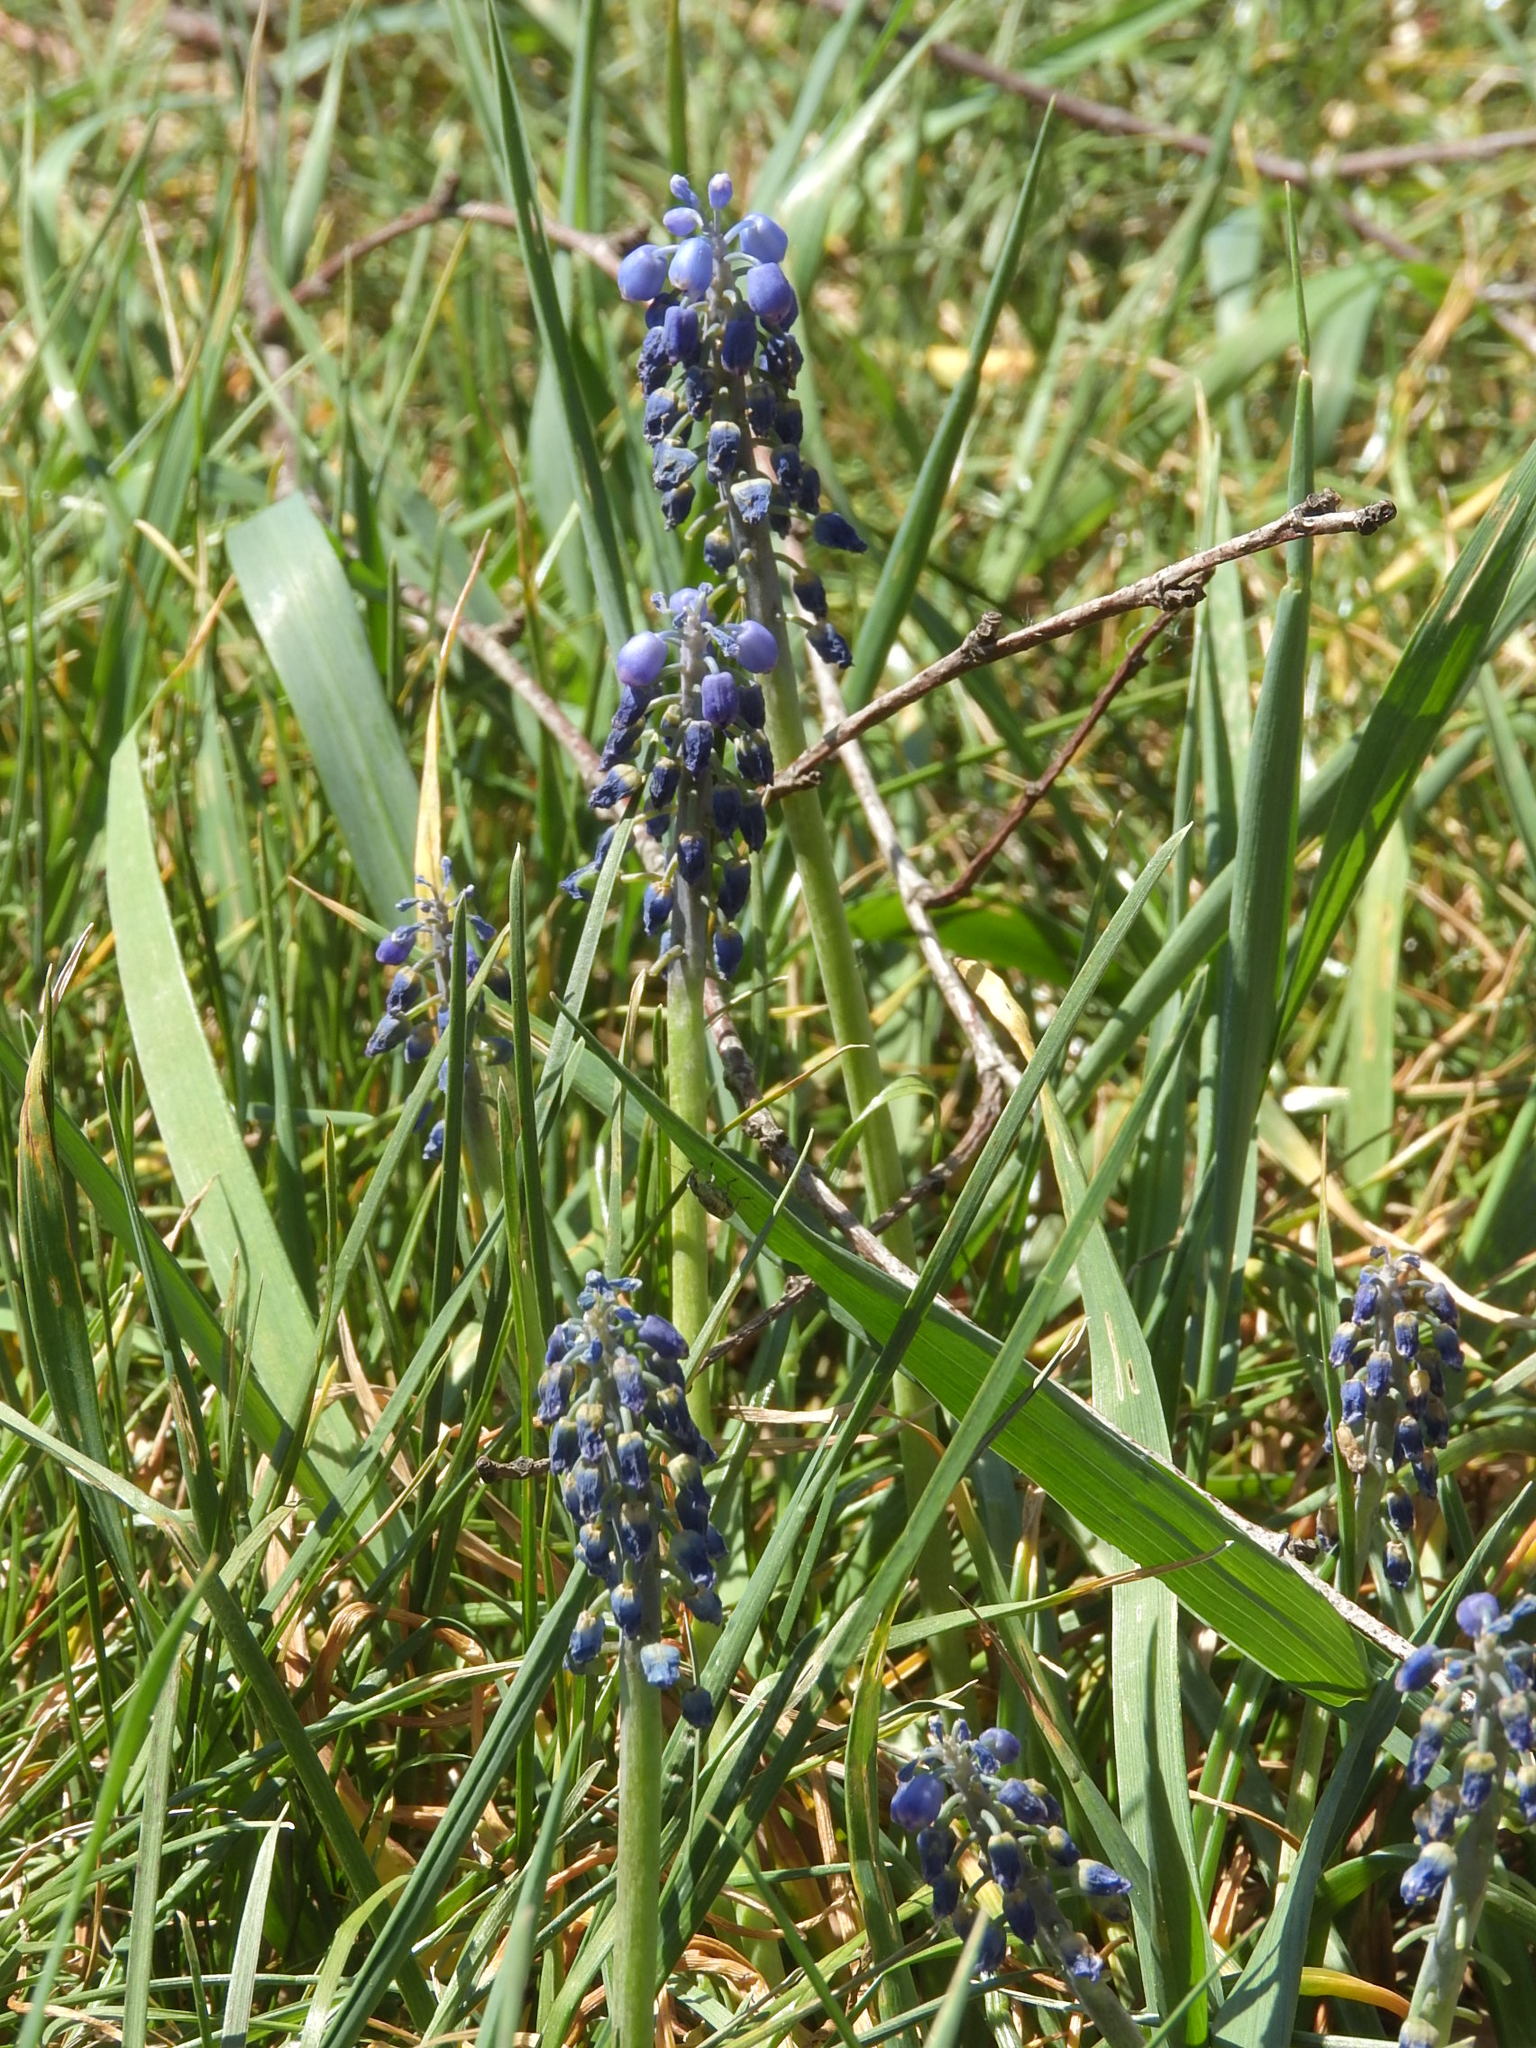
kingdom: Plantae
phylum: Tracheophyta
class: Liliopsida
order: Asparagales
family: Asparagaceae
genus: Muscari
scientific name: Muscari neglectum
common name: Grape-hyacinth
